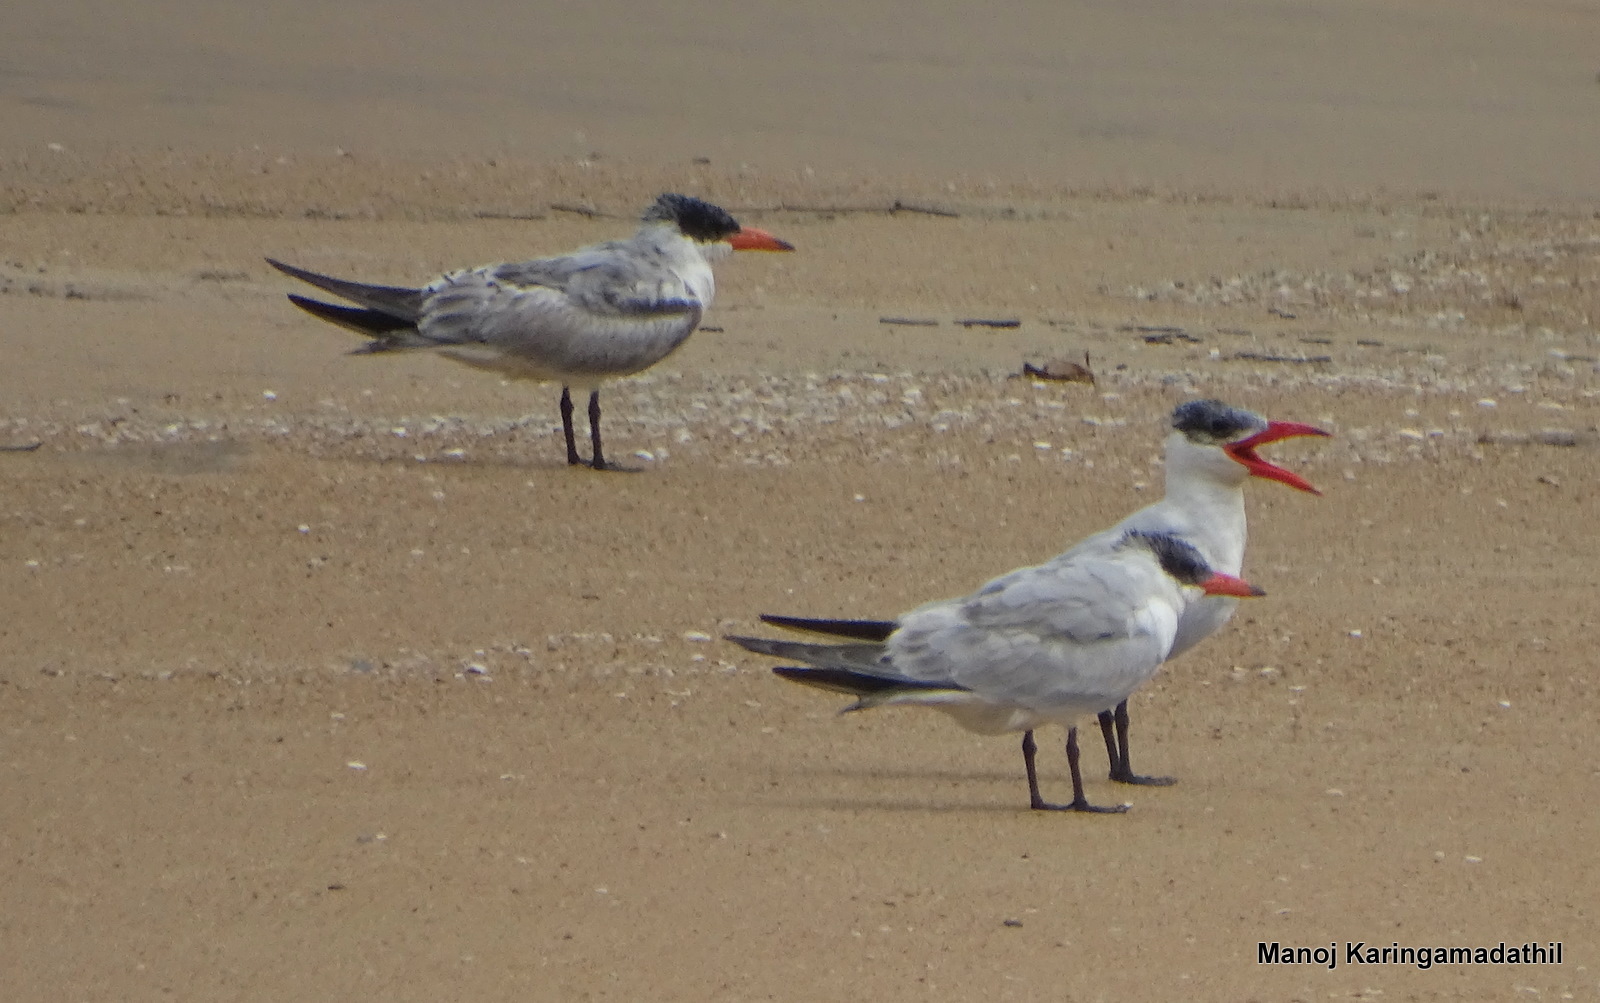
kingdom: Animalia
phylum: Chordata
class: Aves
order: Charadriiformes
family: Laridae
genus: Hydroprogne
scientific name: Hydroprogne caspia
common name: Caspian tern
